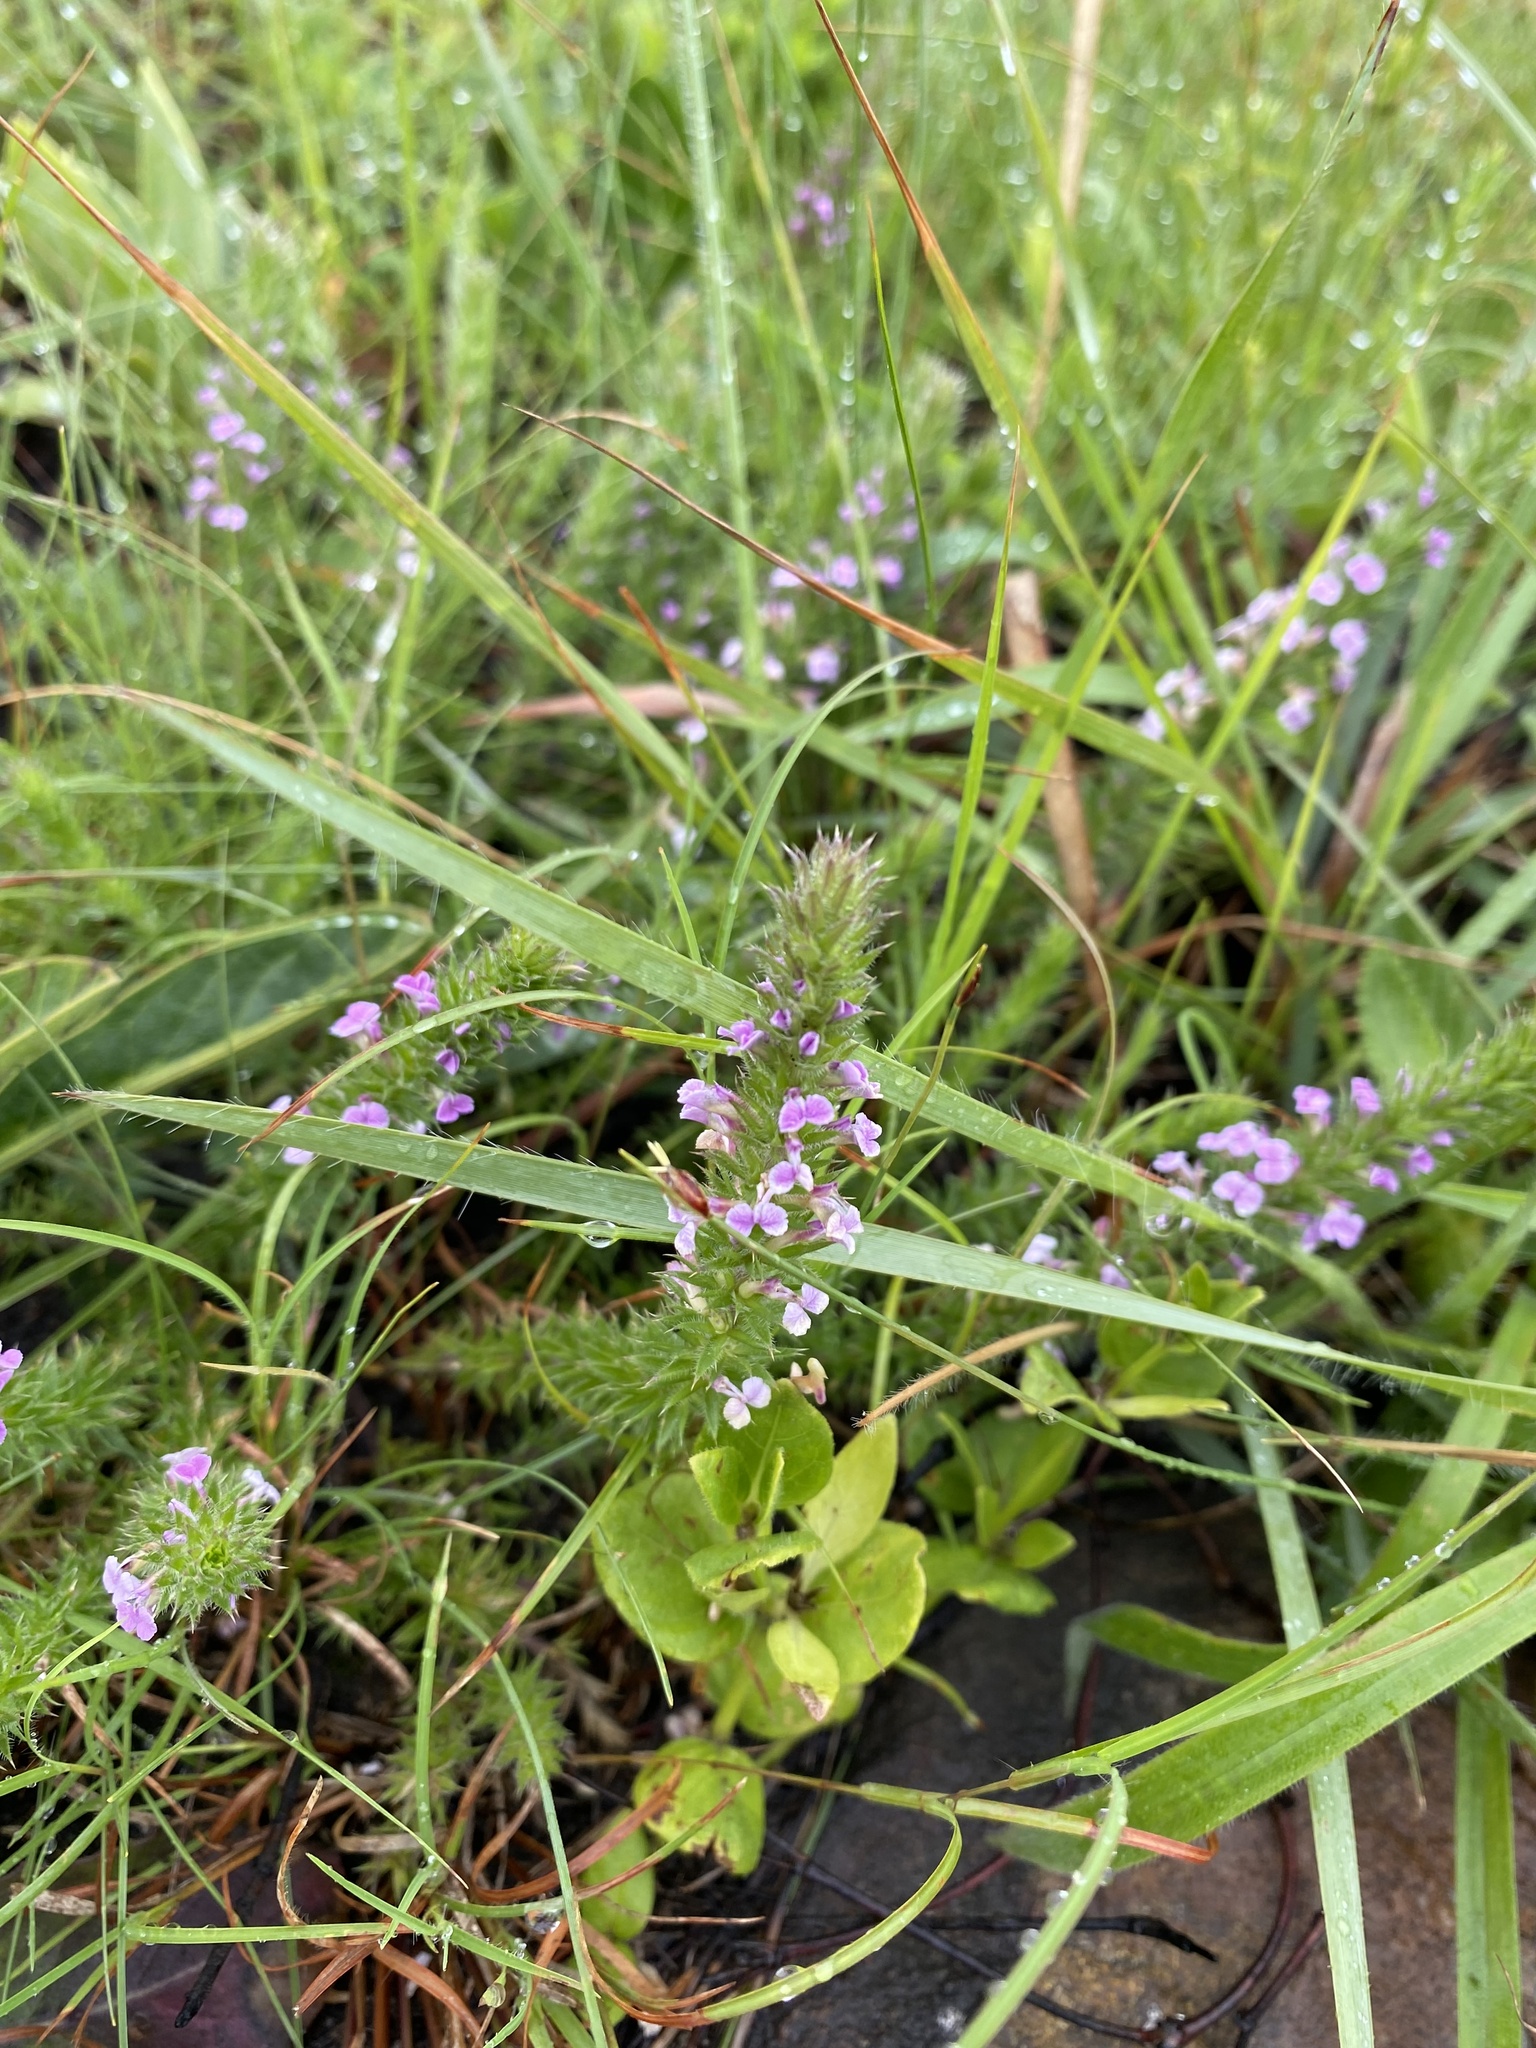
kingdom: Plantae
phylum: Tracheophyta
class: Magnoliopsida
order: Fabales
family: Polygalaceae
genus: Muraltia
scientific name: Muraltia lancifolia
